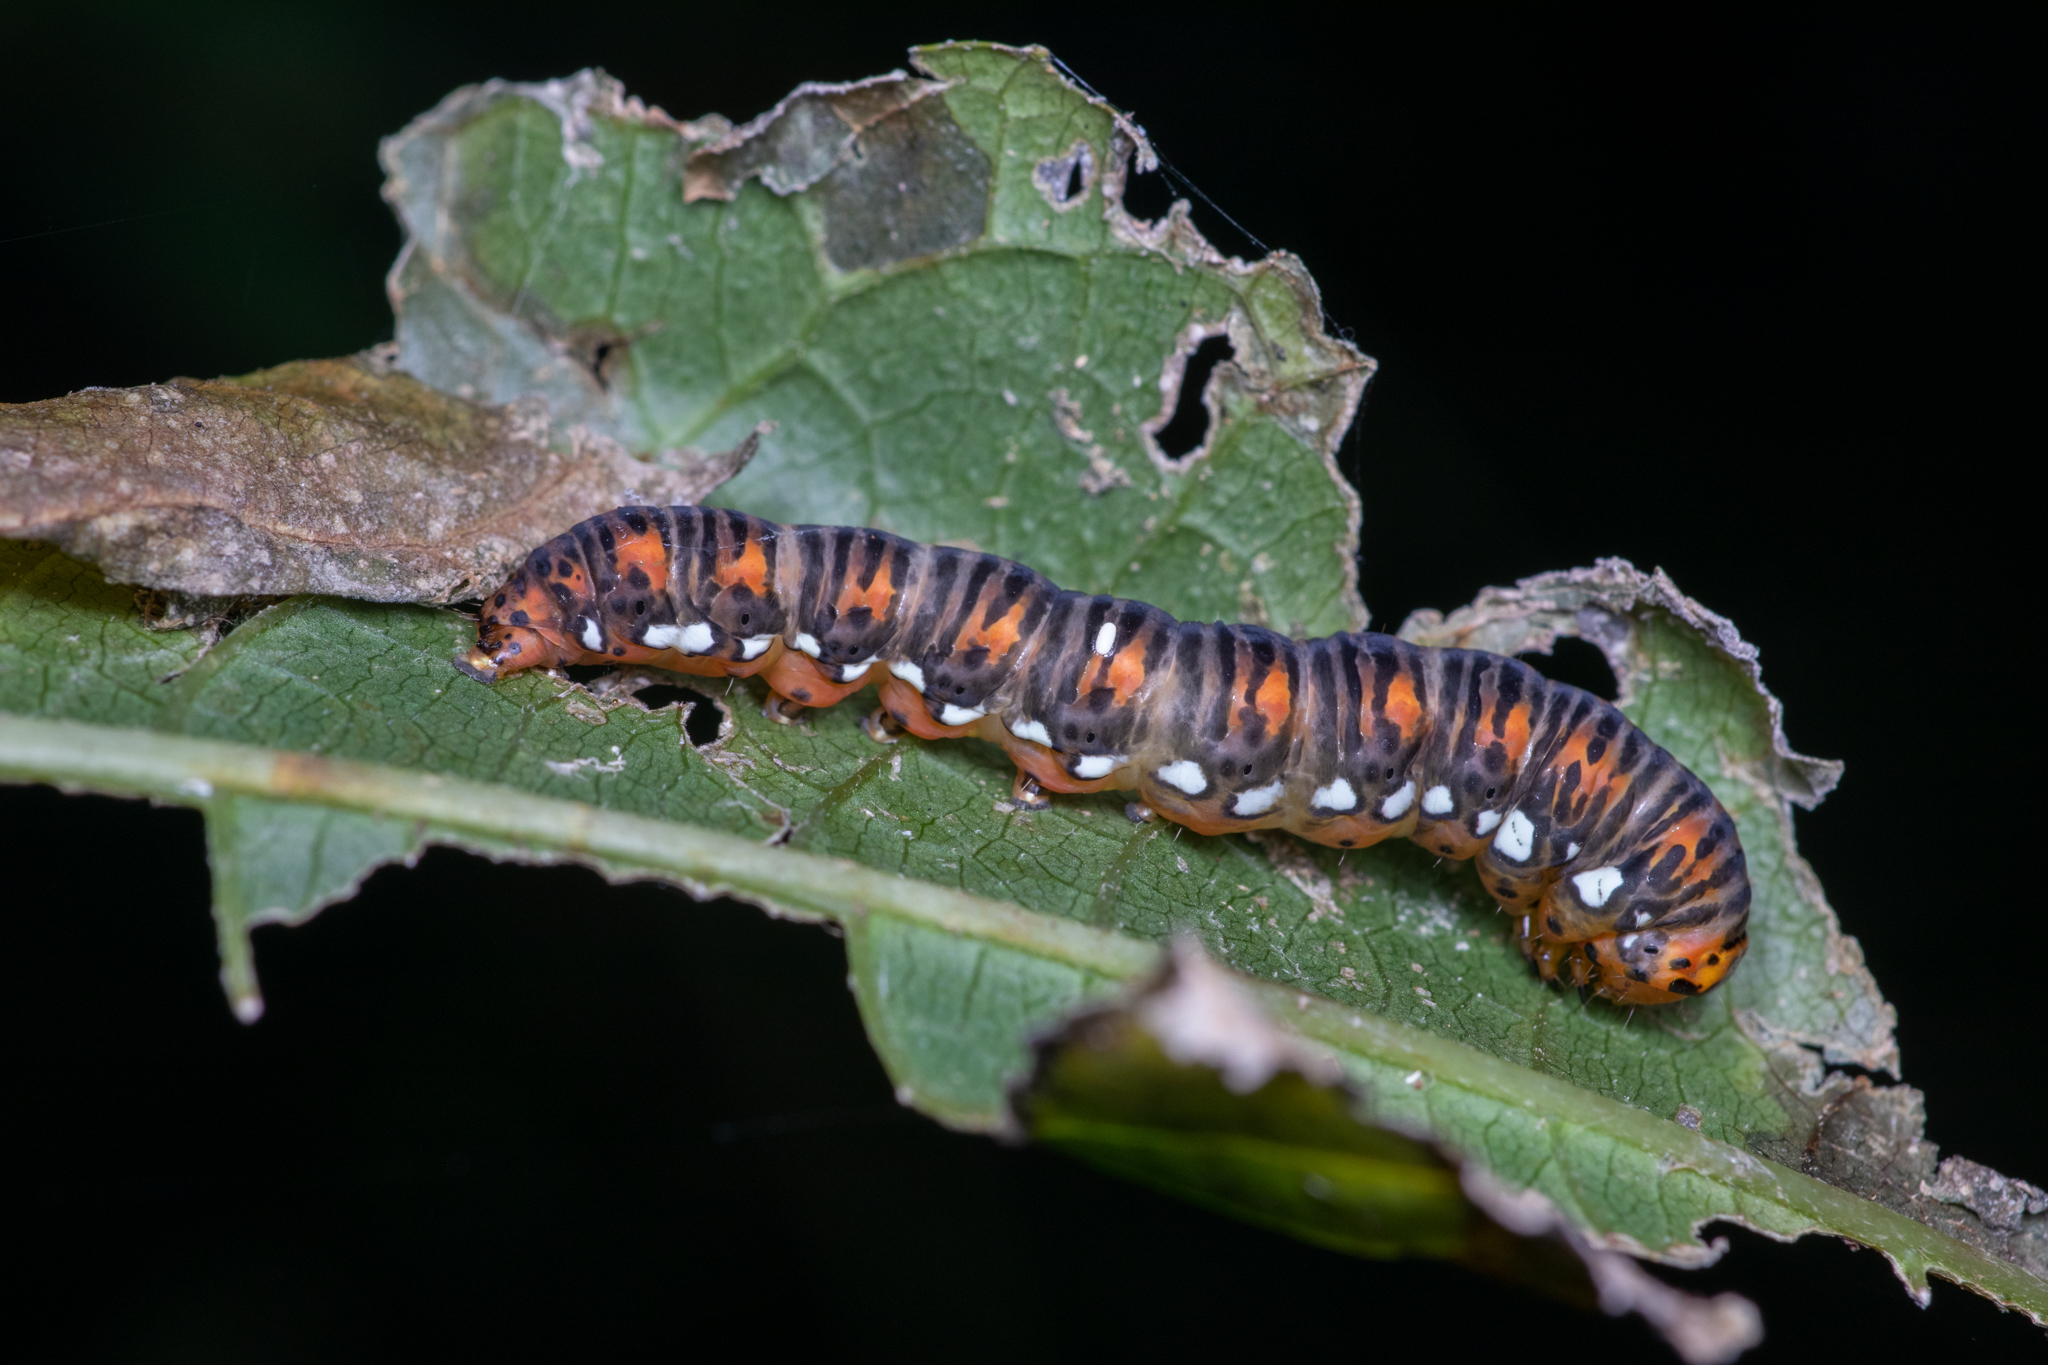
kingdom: Animalia
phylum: Arthropoda
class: Insecta
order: Lepidoptera
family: Noctuidae
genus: Basilodes
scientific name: Basilodes pepita
